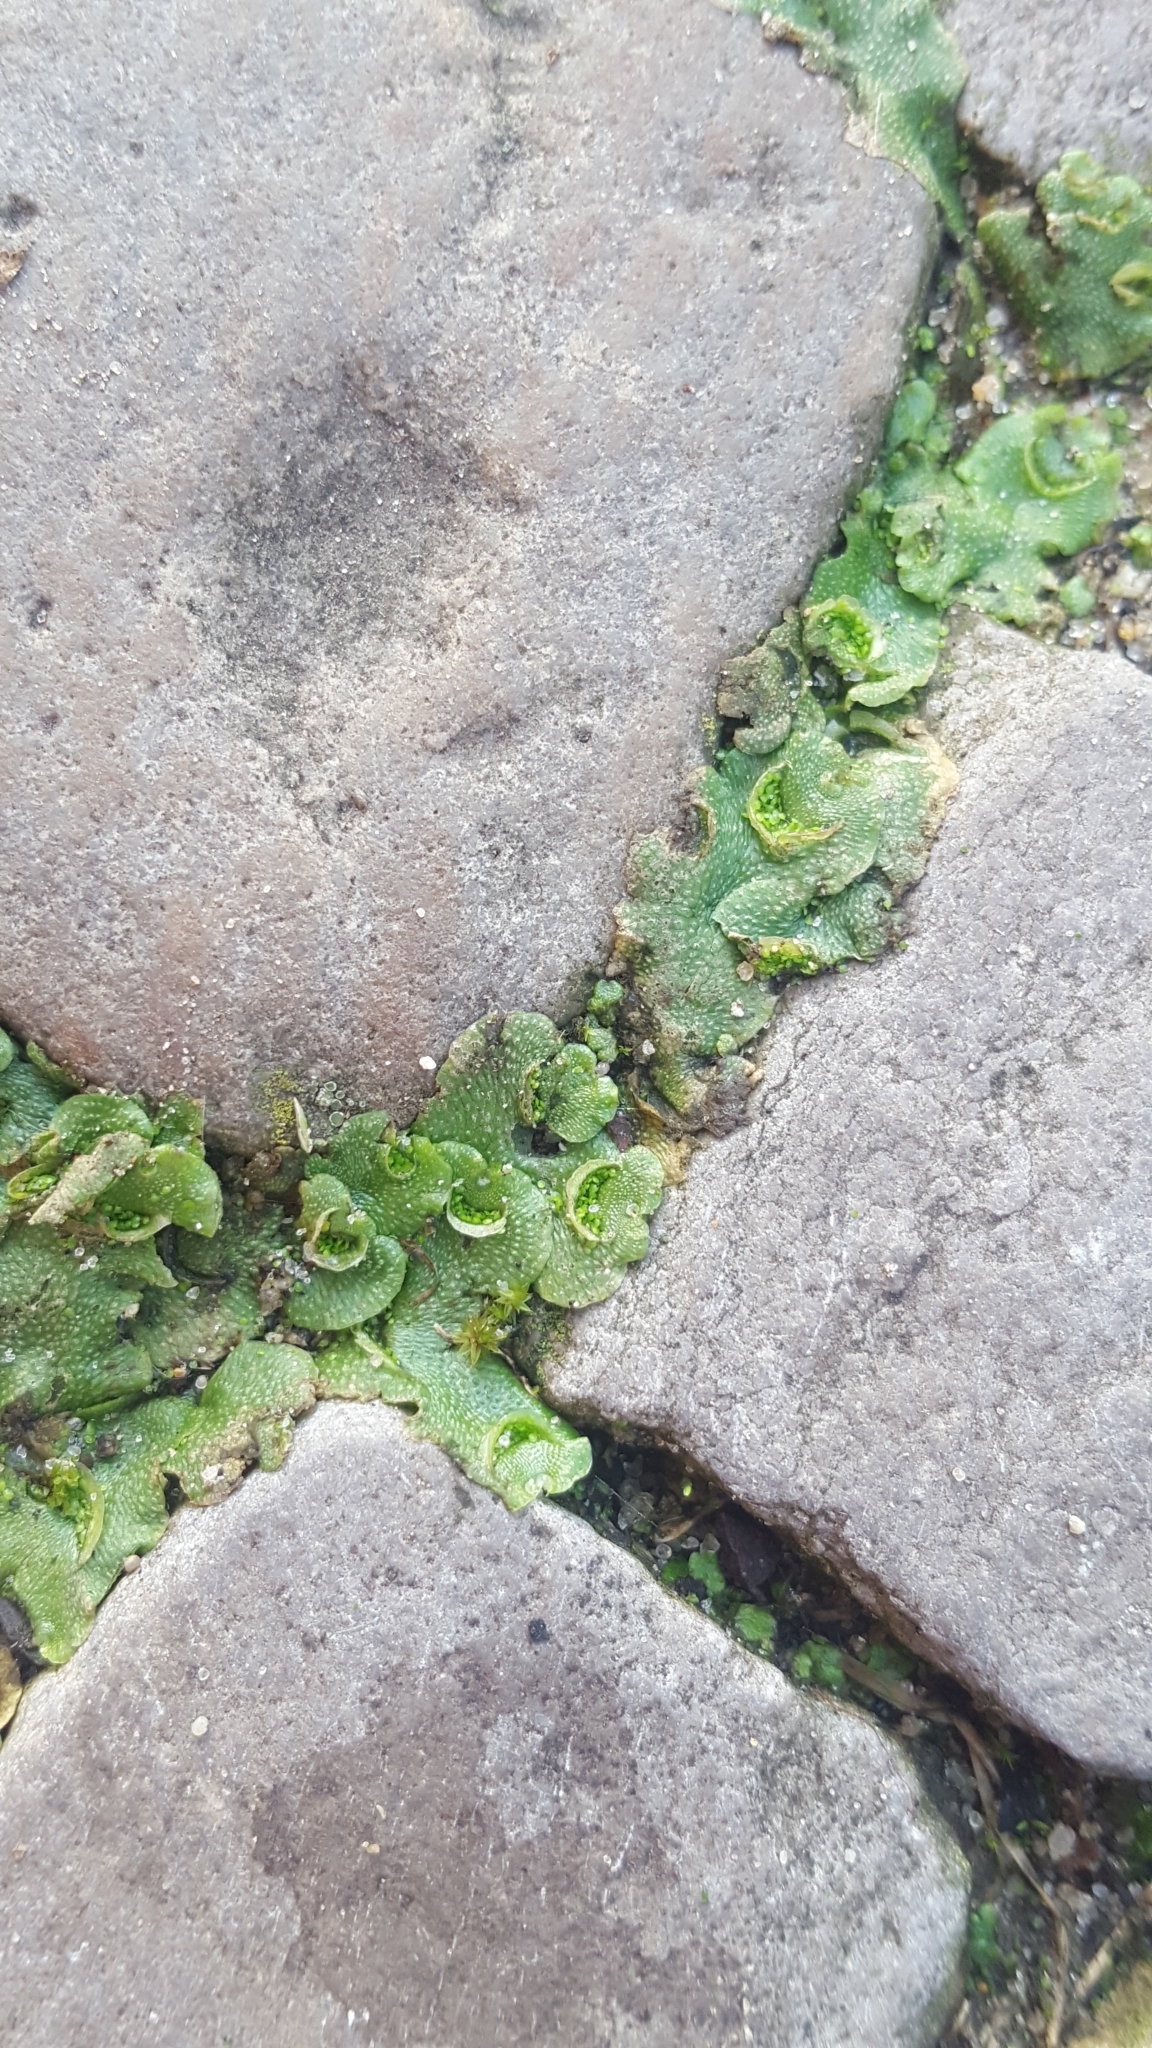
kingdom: Plantae
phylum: Marchantiophyta
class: Marchantiopsida
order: Lunulariales
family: Lunulariaceae
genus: Lunularia
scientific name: Lunularia cruciata
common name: Crescent-cup liverwort
